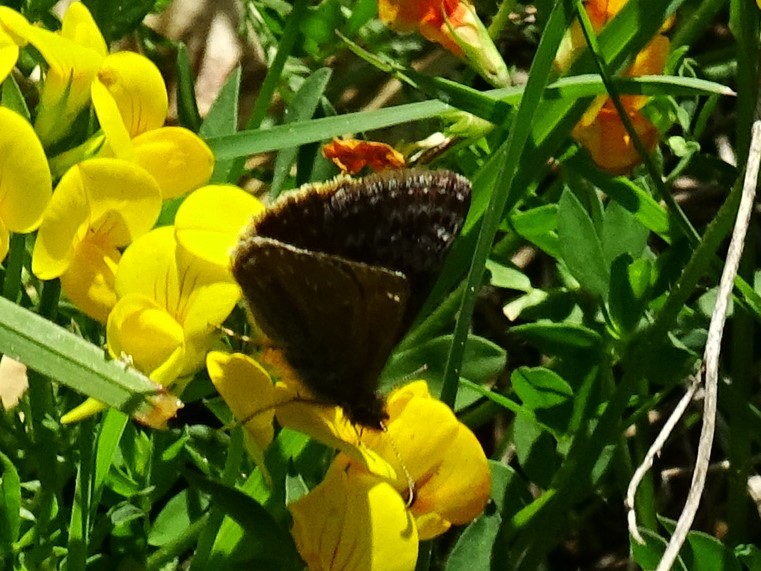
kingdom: Animalia
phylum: Arthropoda
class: Insecta
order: Lepidoptera
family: Hesperiidae
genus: Erynnis
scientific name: Erynnis tages
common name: Dingy skipper
